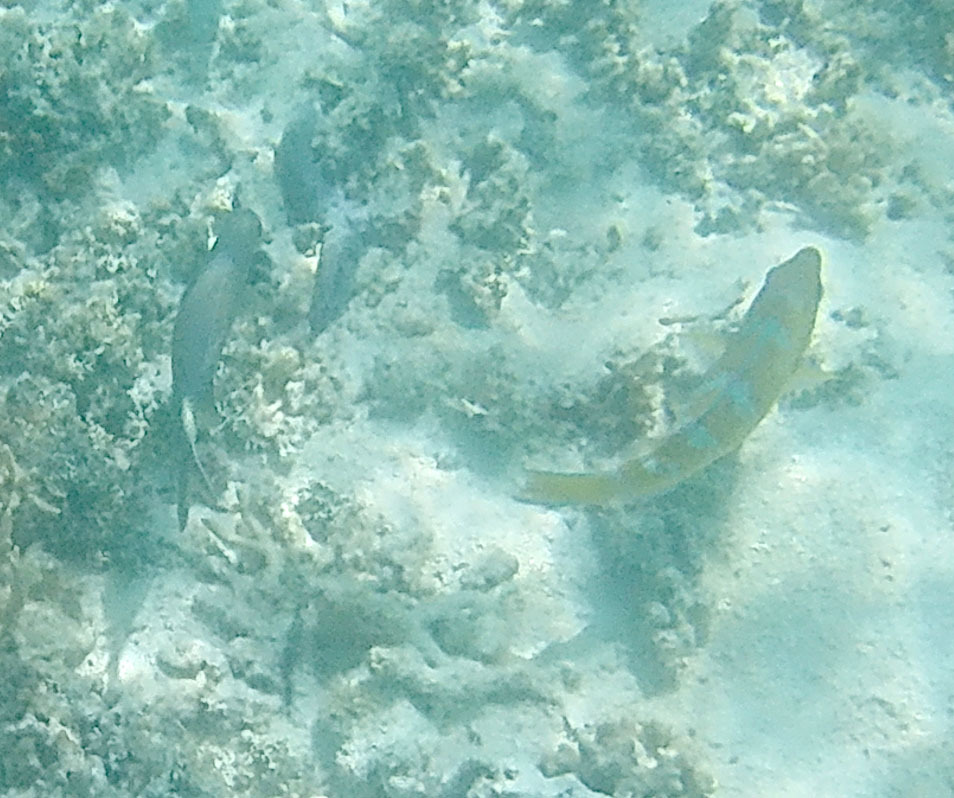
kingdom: Animalia
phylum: Chordata
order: Perciformes
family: Scaridae
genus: Scarus
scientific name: Scarus ghobban
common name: Blue-barred parrotfish
